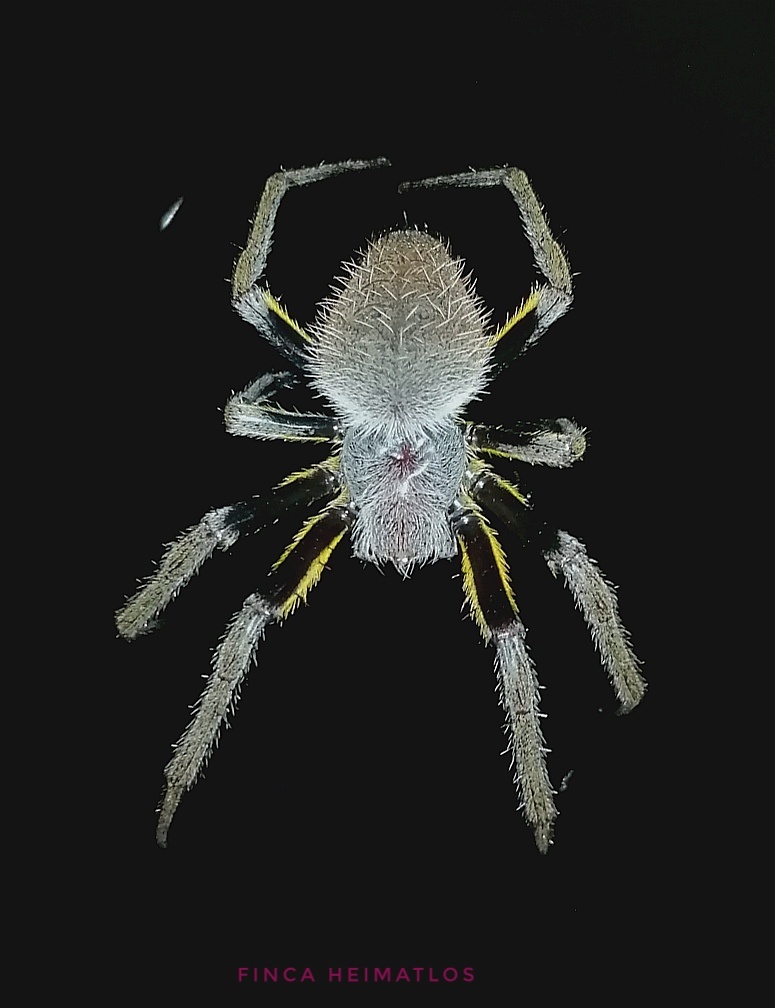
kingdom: Animalia
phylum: Arthropoda
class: Arachnida
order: Araneae
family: Araneidae
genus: Eriophora
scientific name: Eriophora fuliginea
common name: Orb weavers
